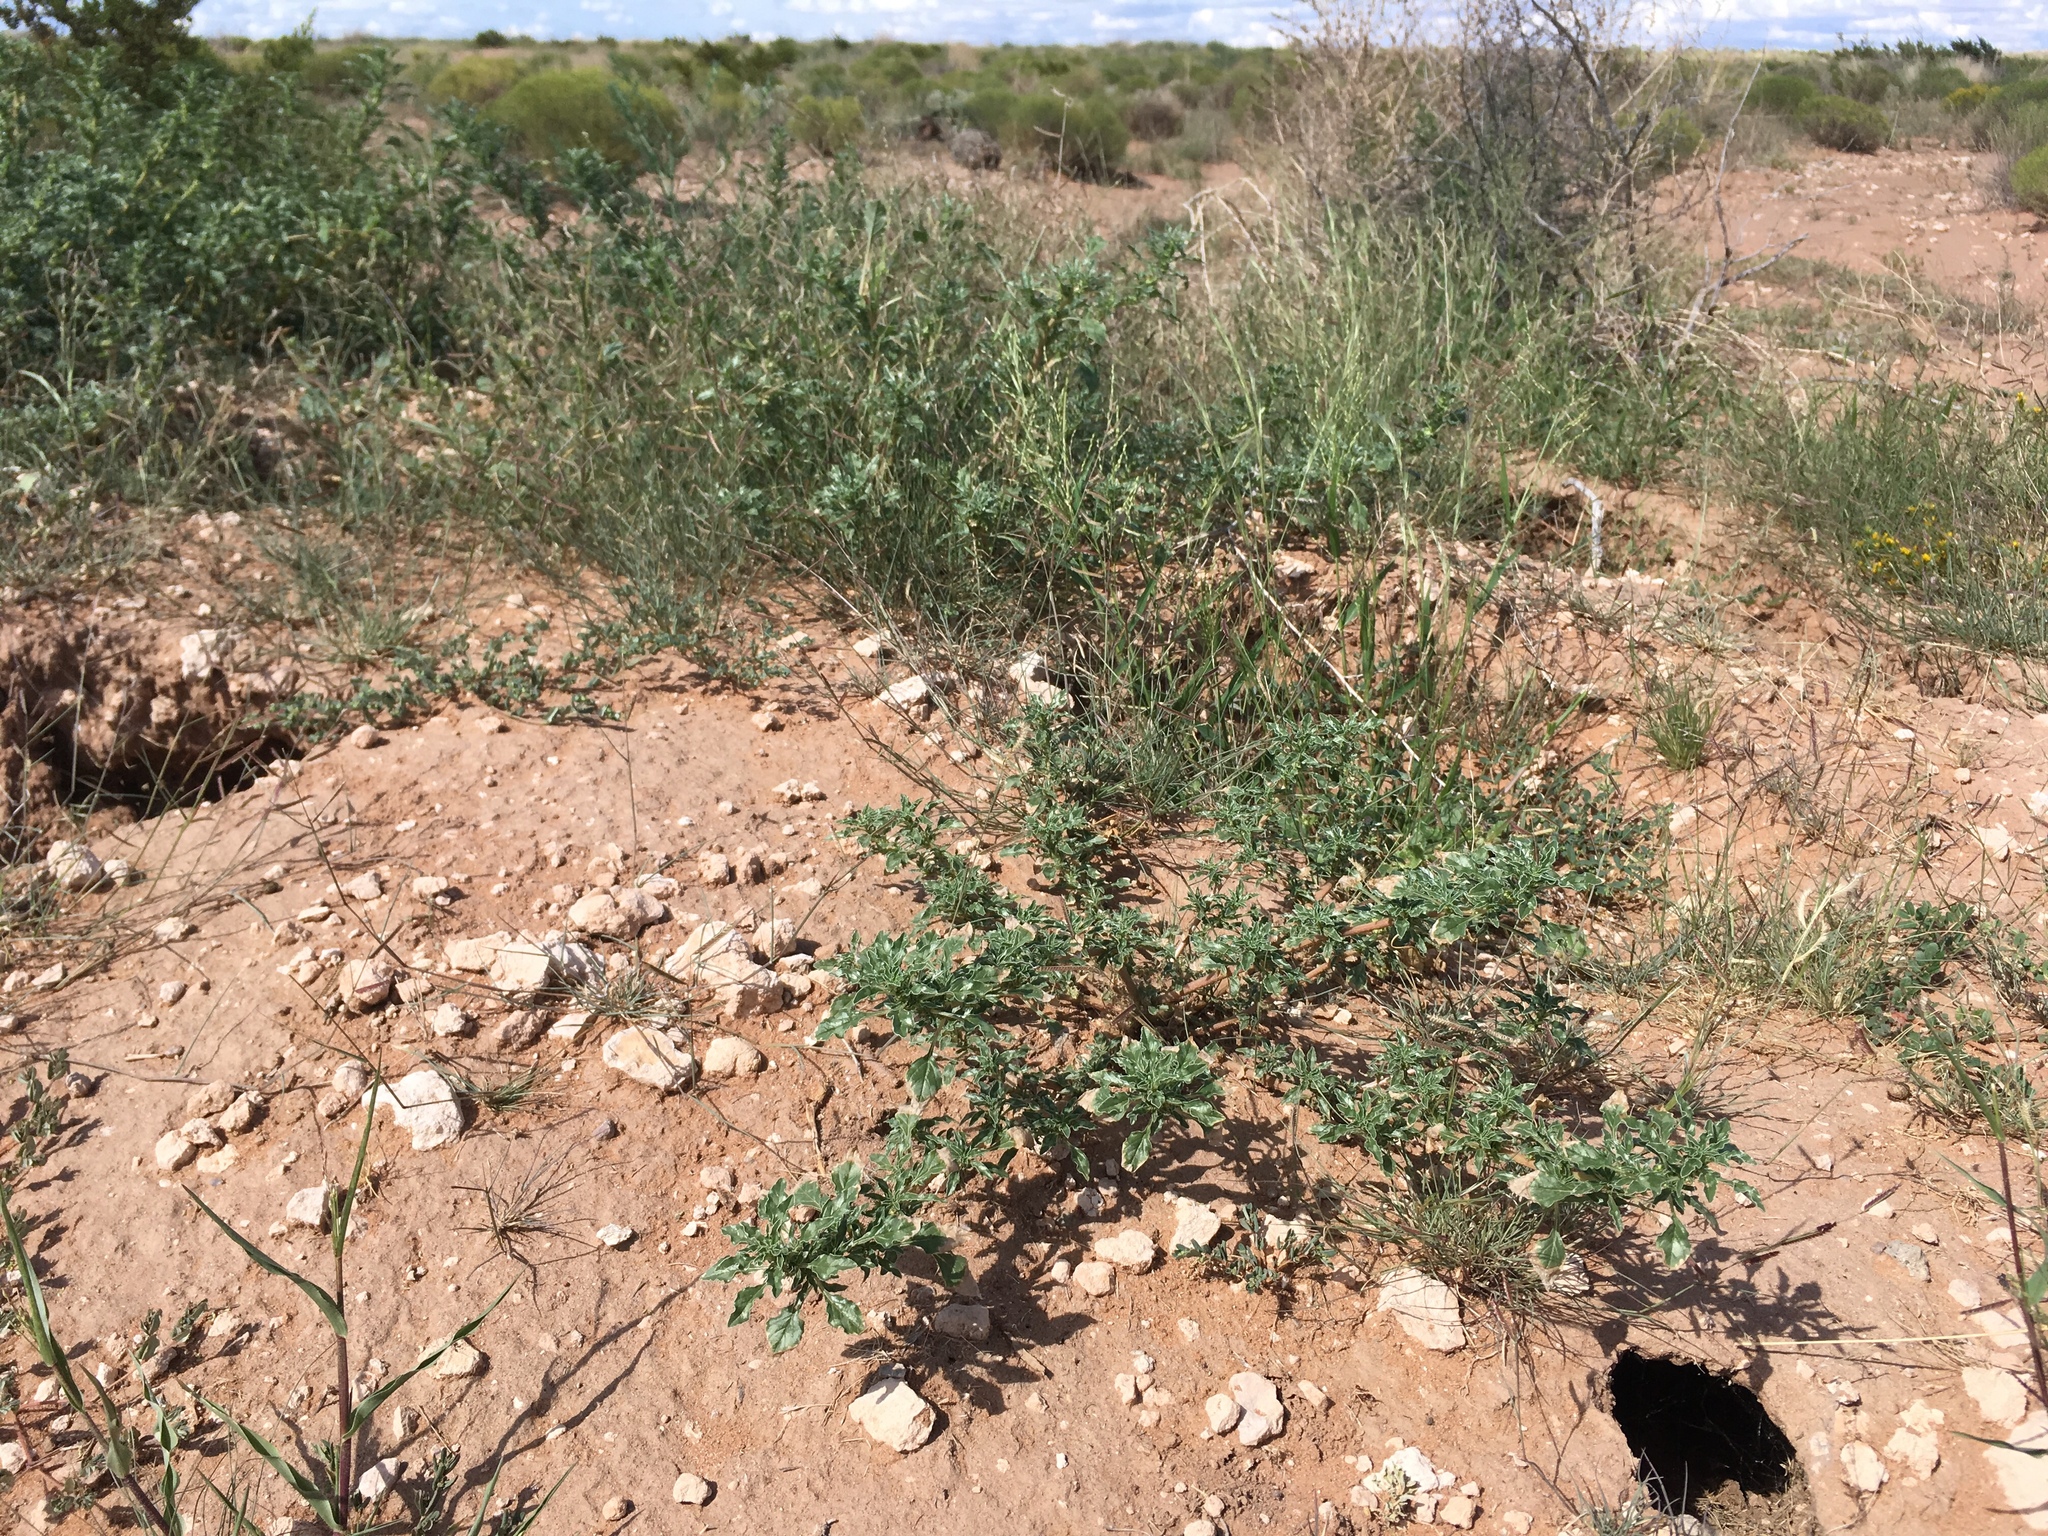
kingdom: Plantae
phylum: Tracheophyta
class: Magnoliopsida
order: Caryophyllales
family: Amaranthaceae
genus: Amaranthus
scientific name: Amaranthus blitoides
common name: Prostrate pigweed
